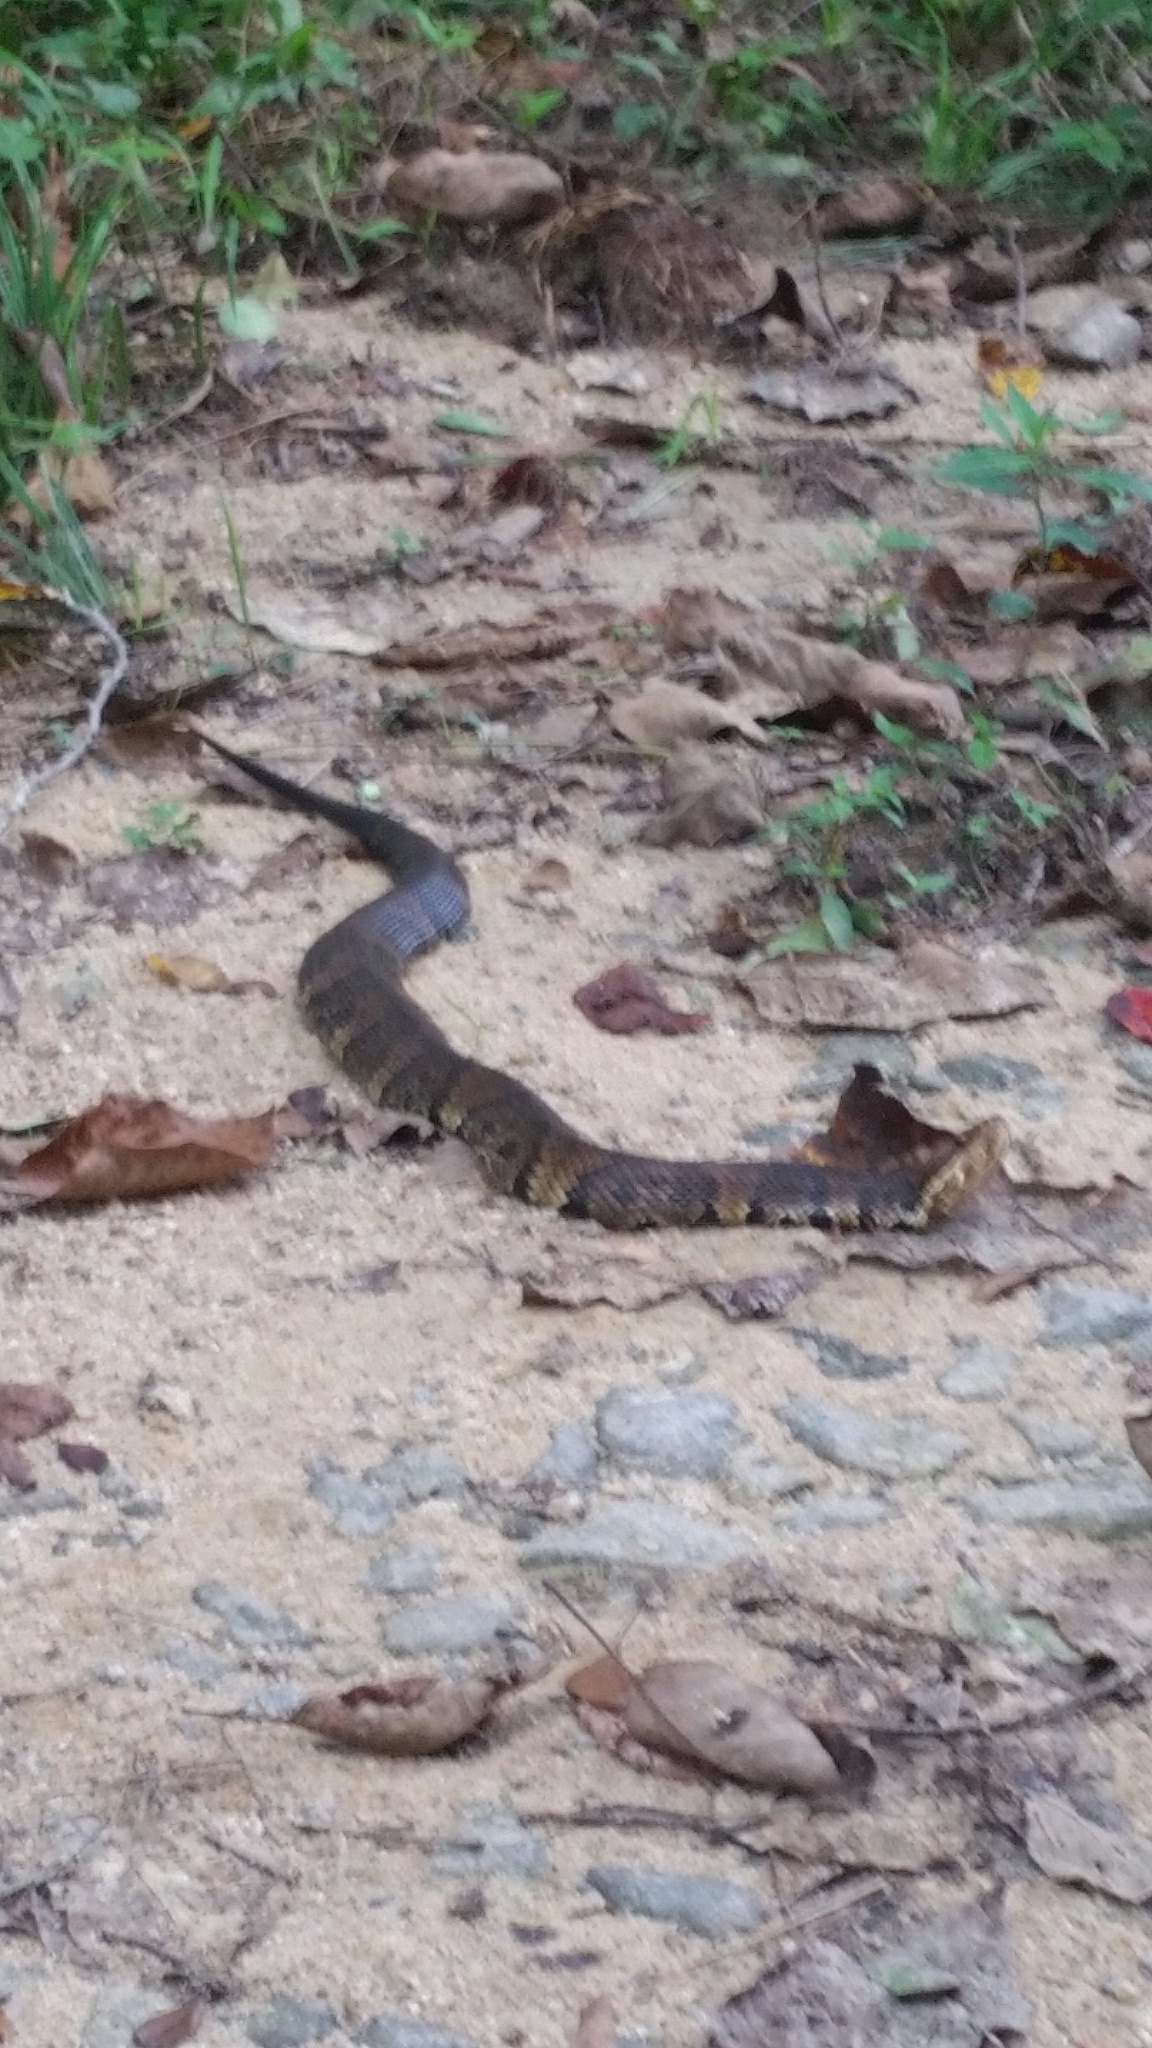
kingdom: Animalia
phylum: Chordata
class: Squamata
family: Viperidae
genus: Agkistrodon
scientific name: Agkistrodon piscivorus
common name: Cottonmouth
